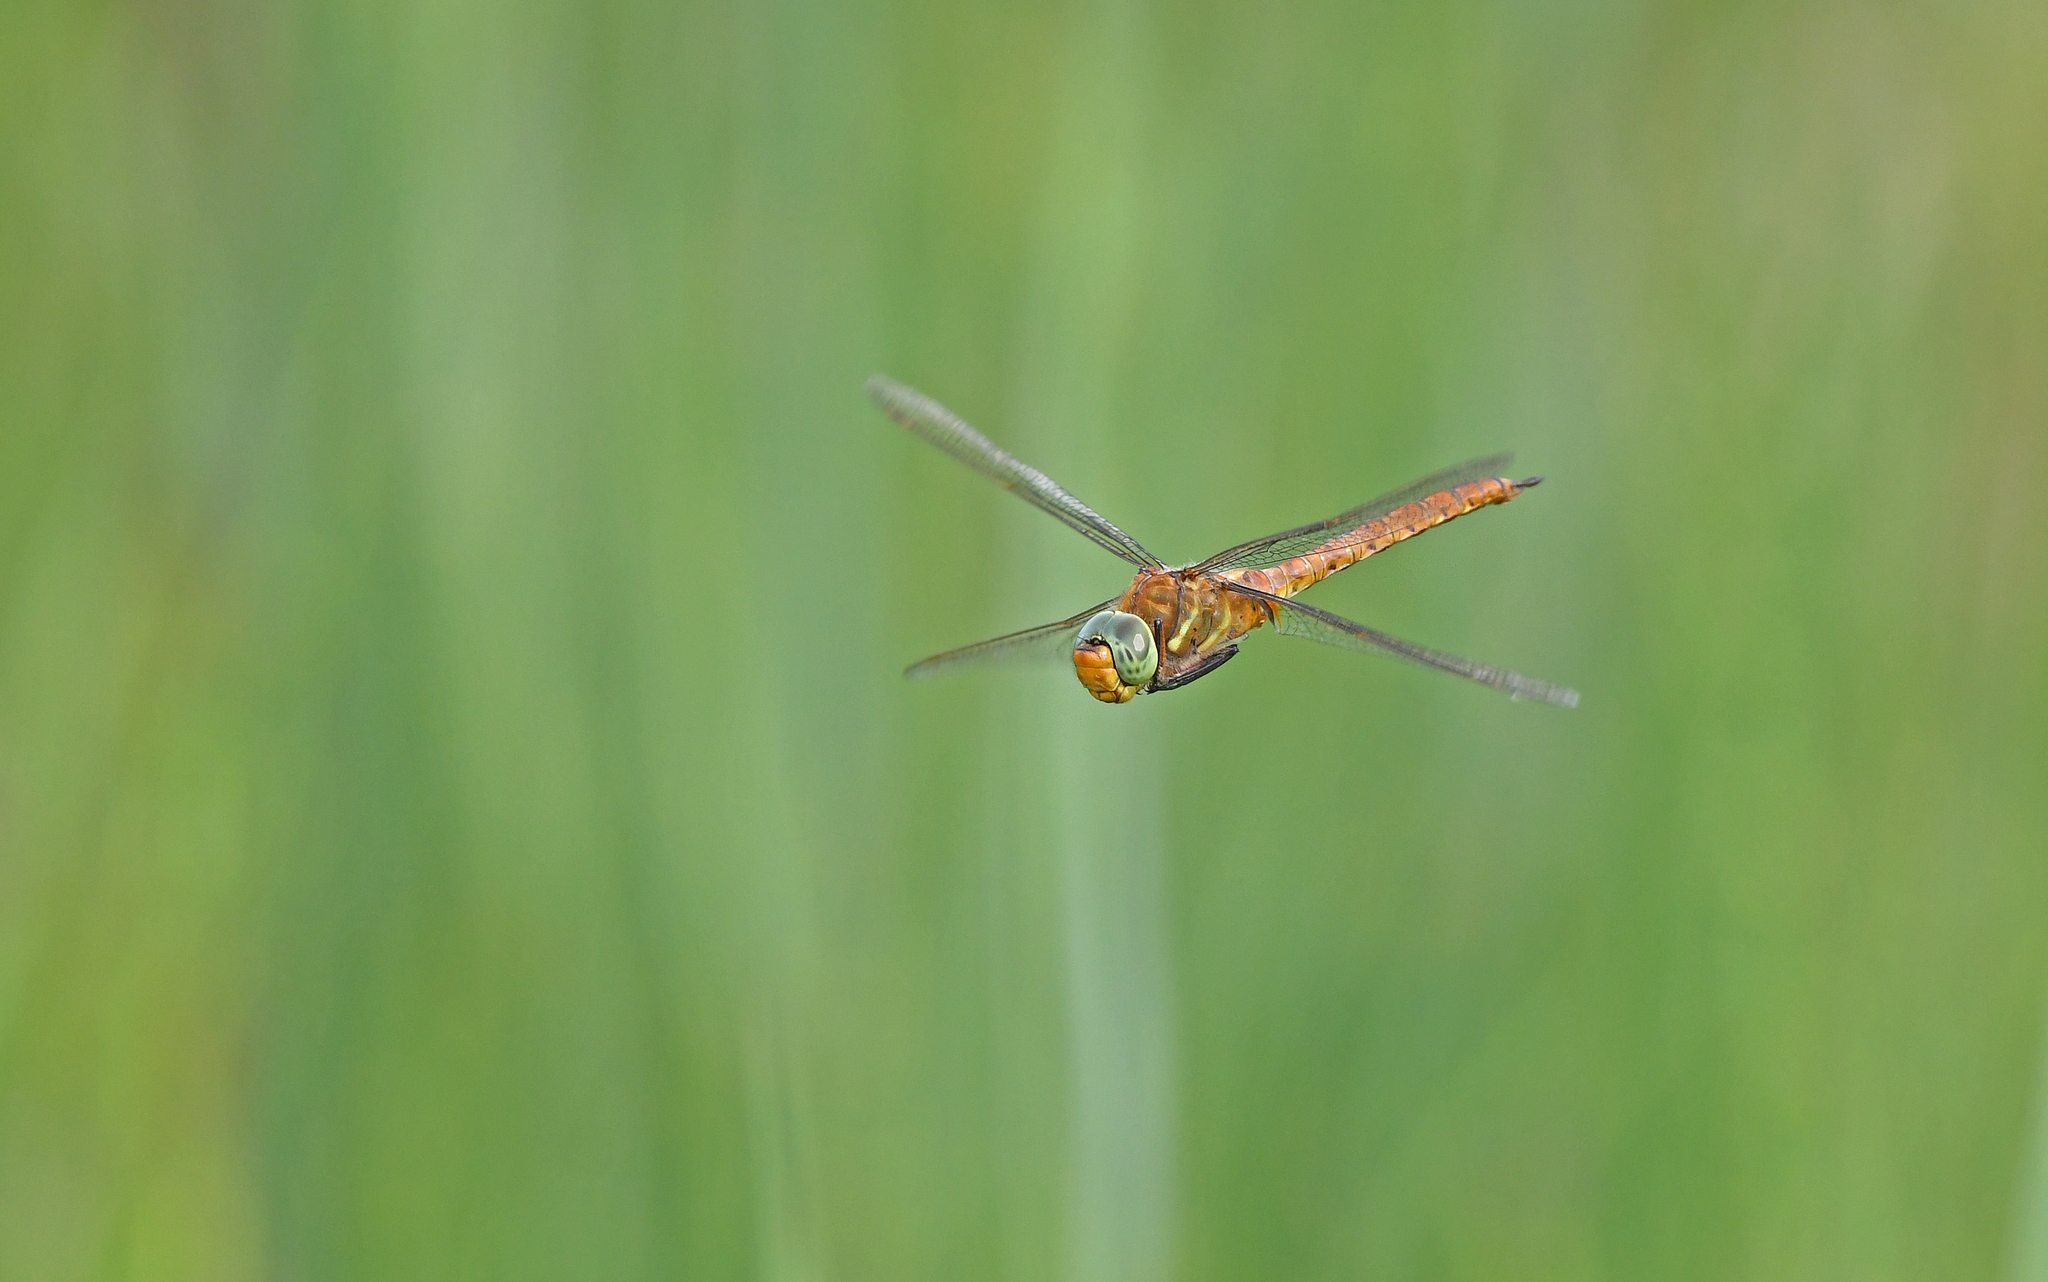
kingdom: Animalia
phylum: Arthropoda
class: Insecta
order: Odonata
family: Aeshnidae
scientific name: Aeshnidae
